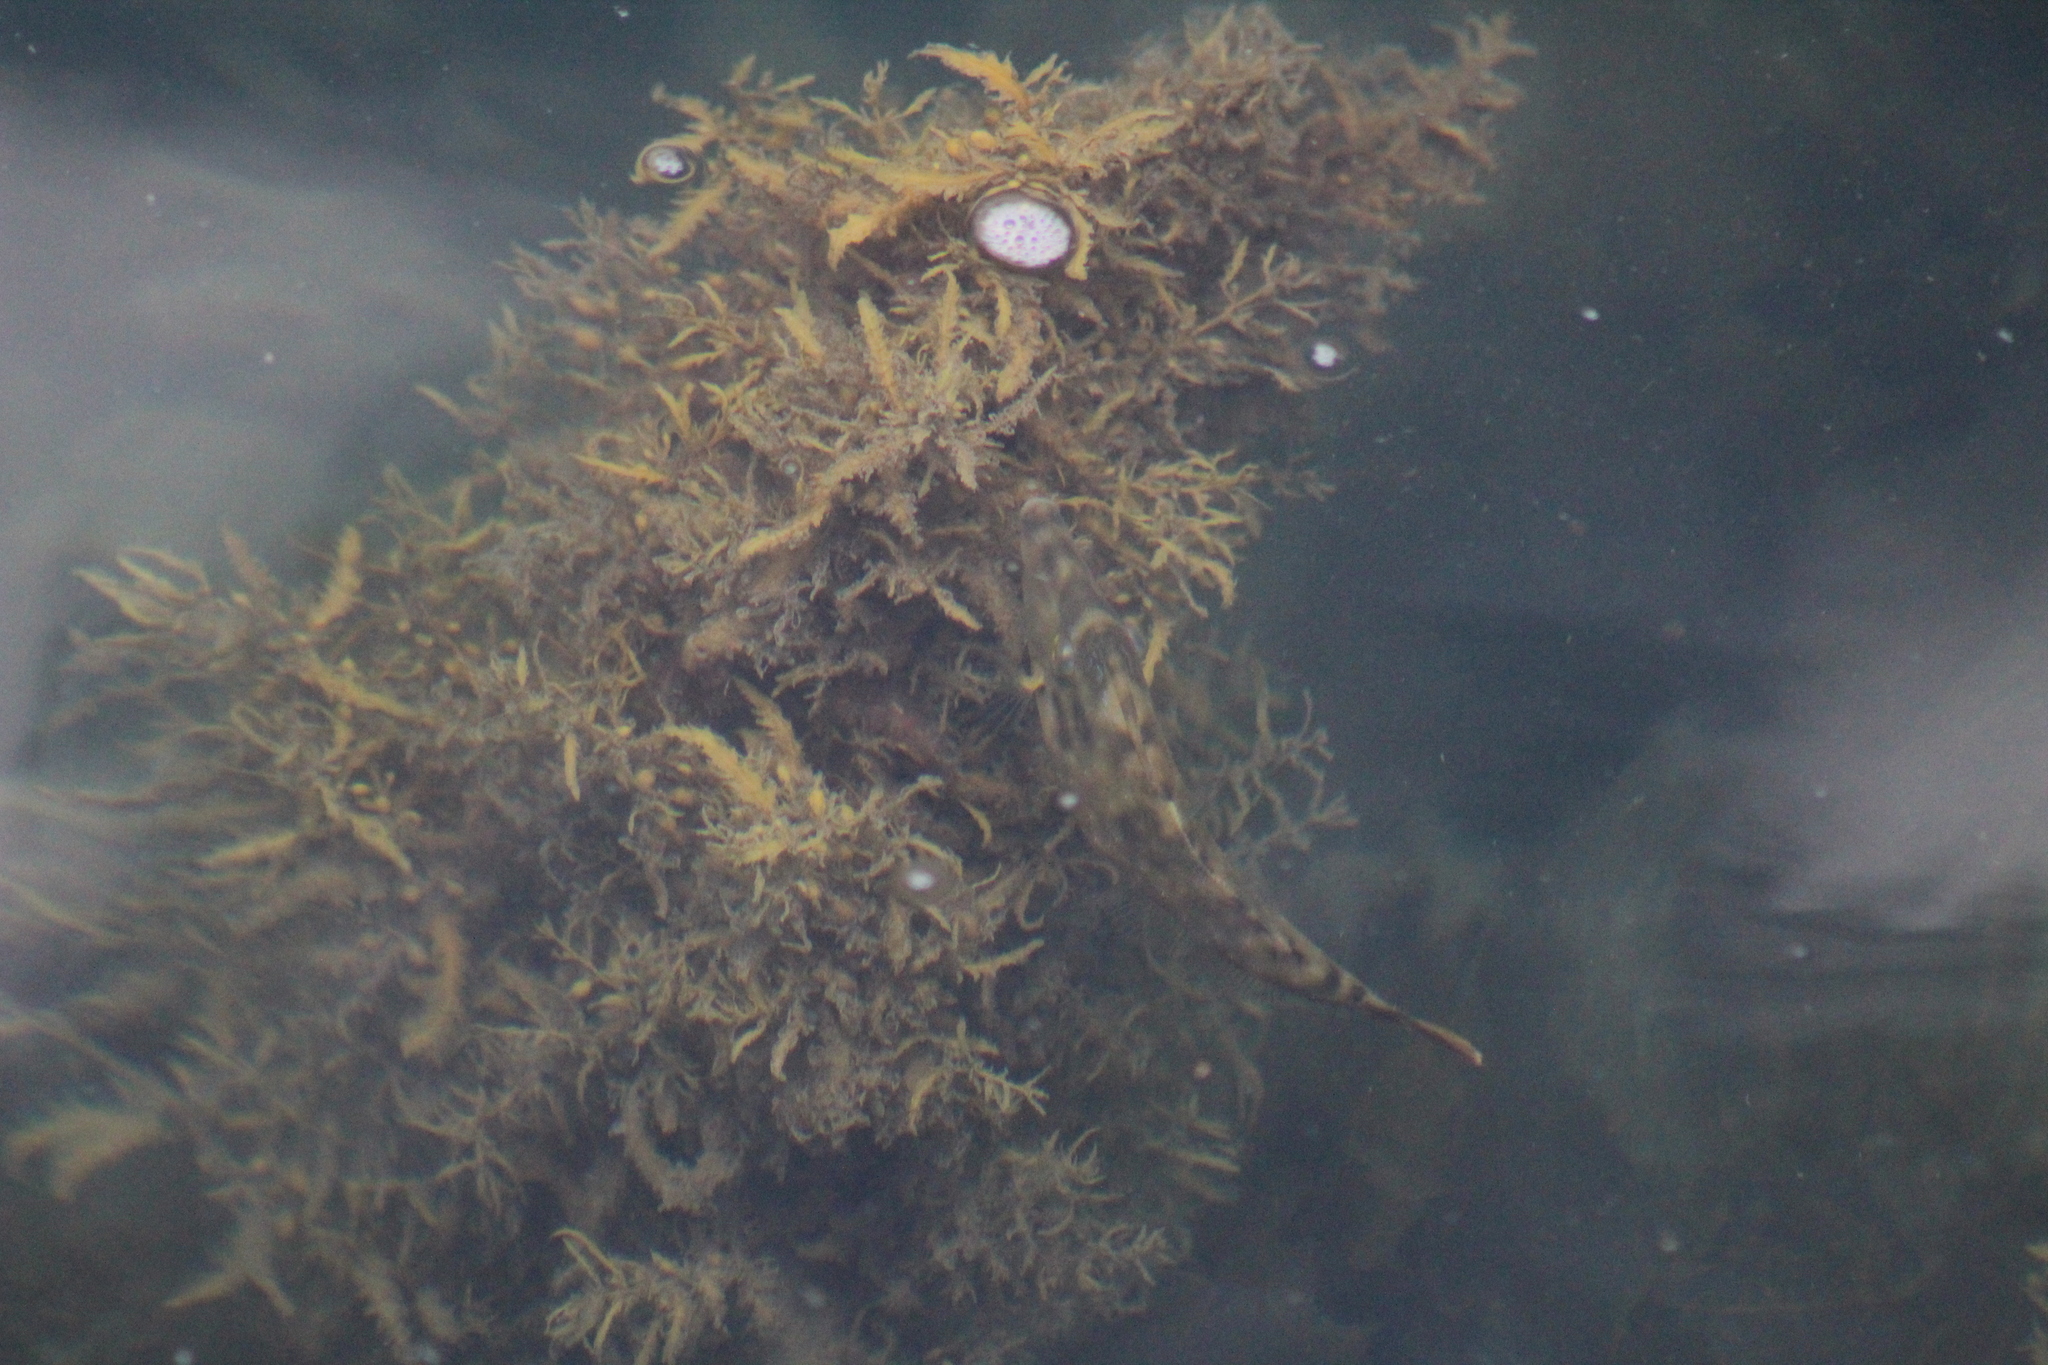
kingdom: Animalia
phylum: Chordata
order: Tetraodontiformes
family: Monacanthidae
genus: Meuschenia
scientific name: Meuschenia trachylepis
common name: Yellowfin leatherjacket
